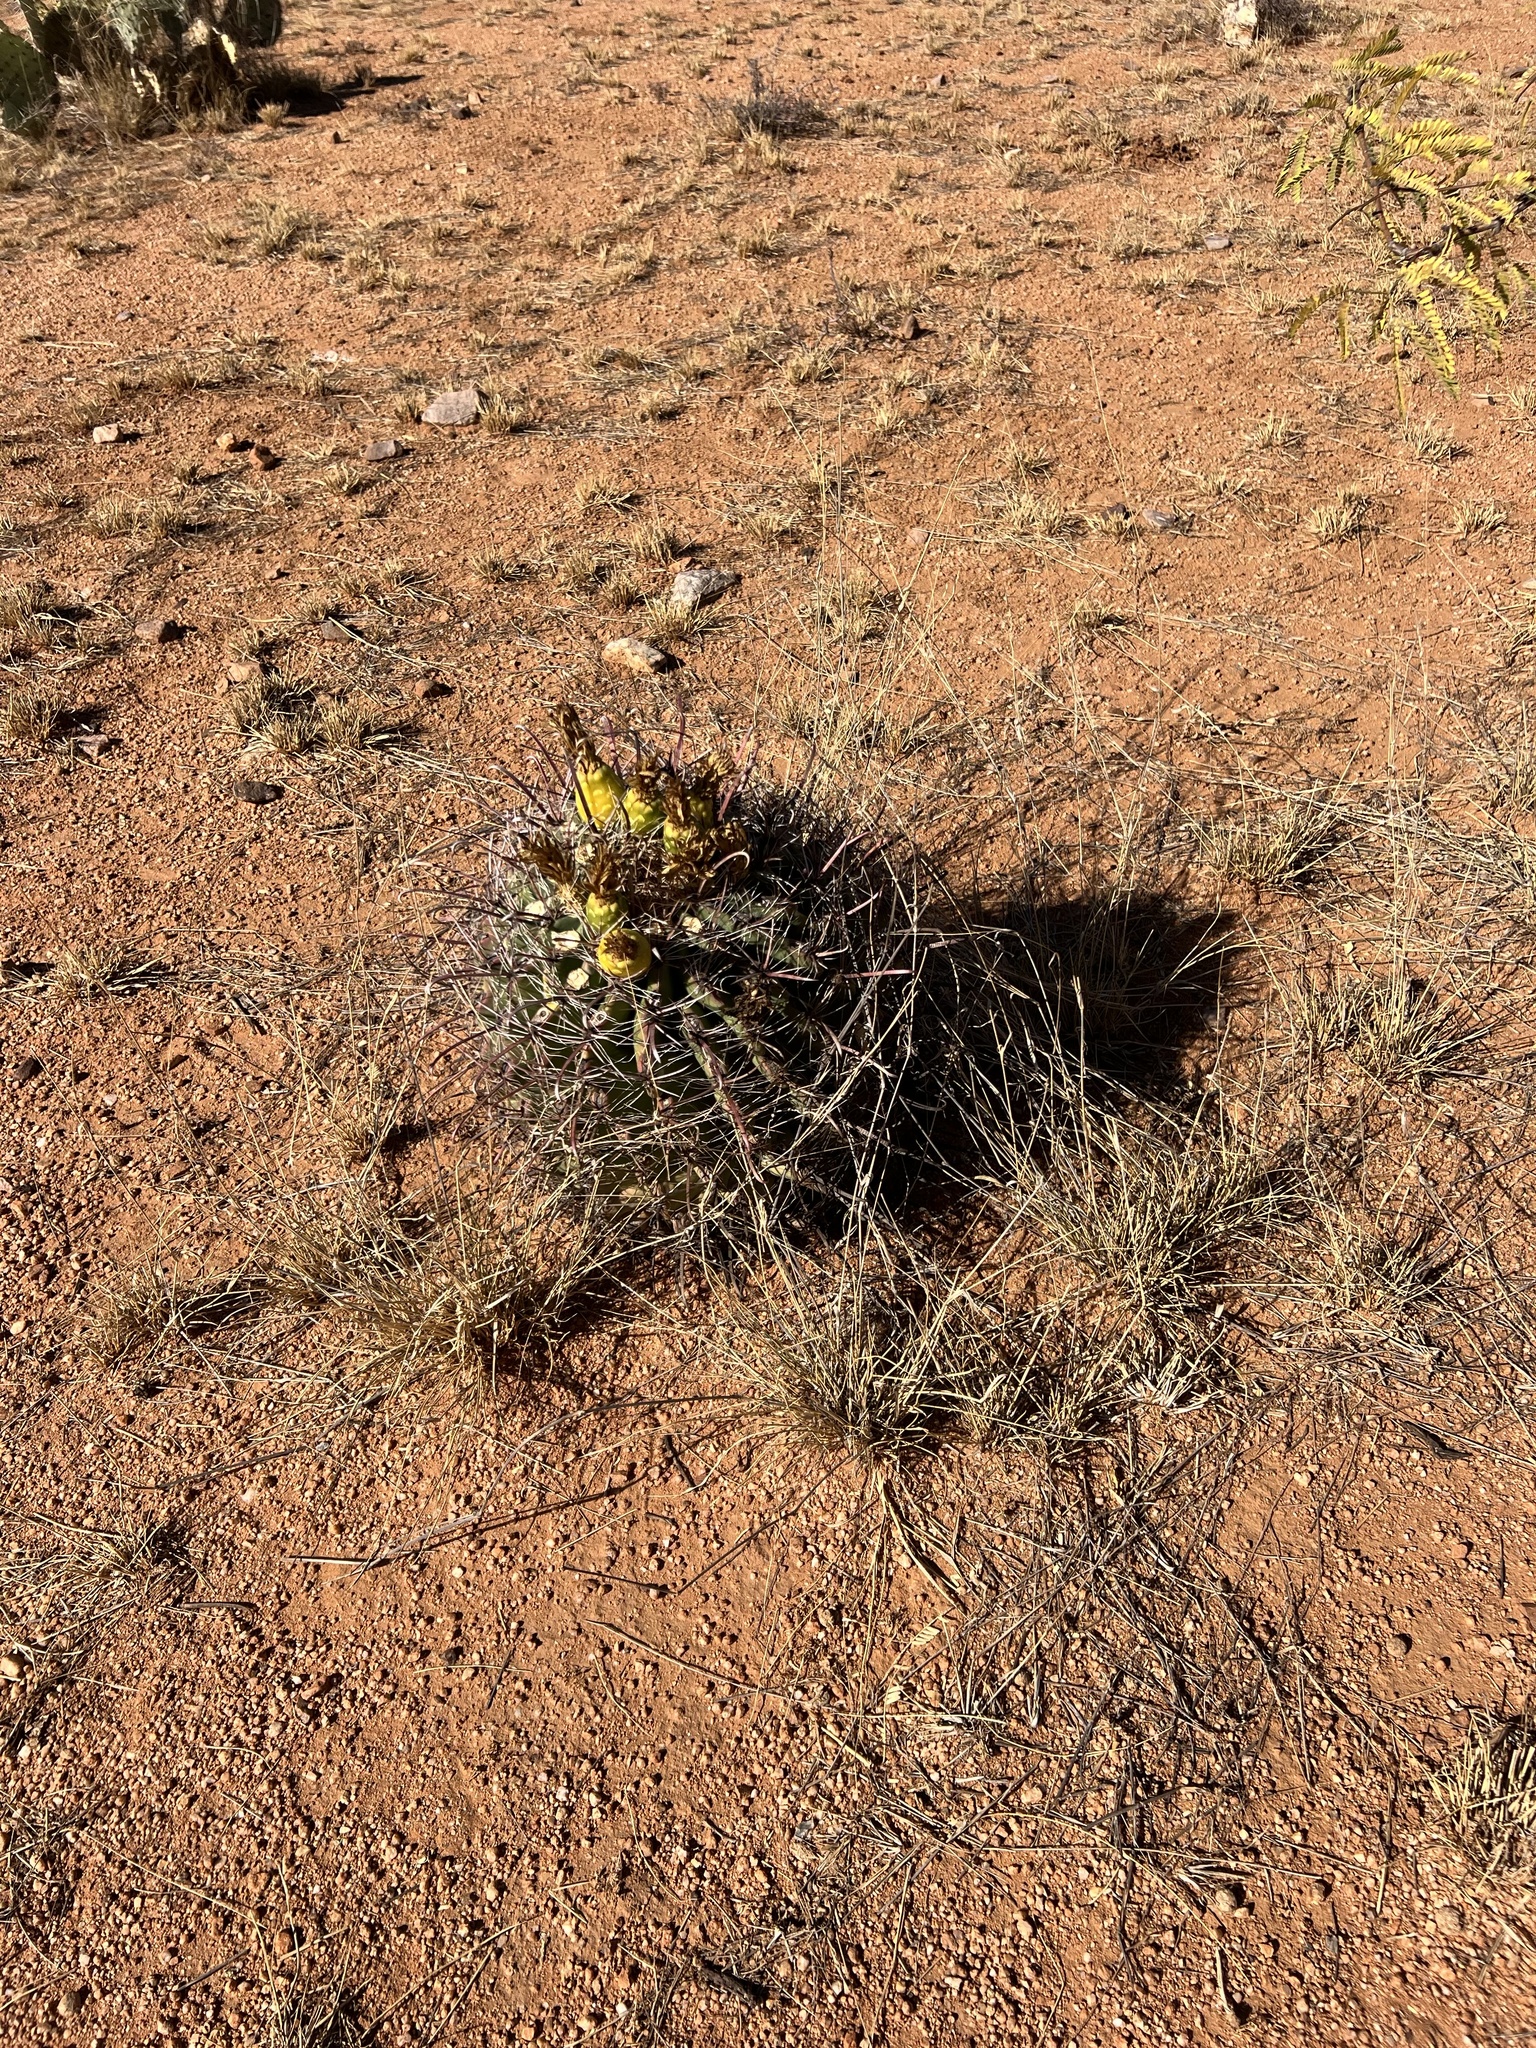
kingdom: Plantae
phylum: Tracheophyta
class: Magnoliopsida
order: Caryophyllales
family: Cactaceae
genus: Ferocactus
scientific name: Ferocactus wislizeni
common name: Candy barrel cactus
